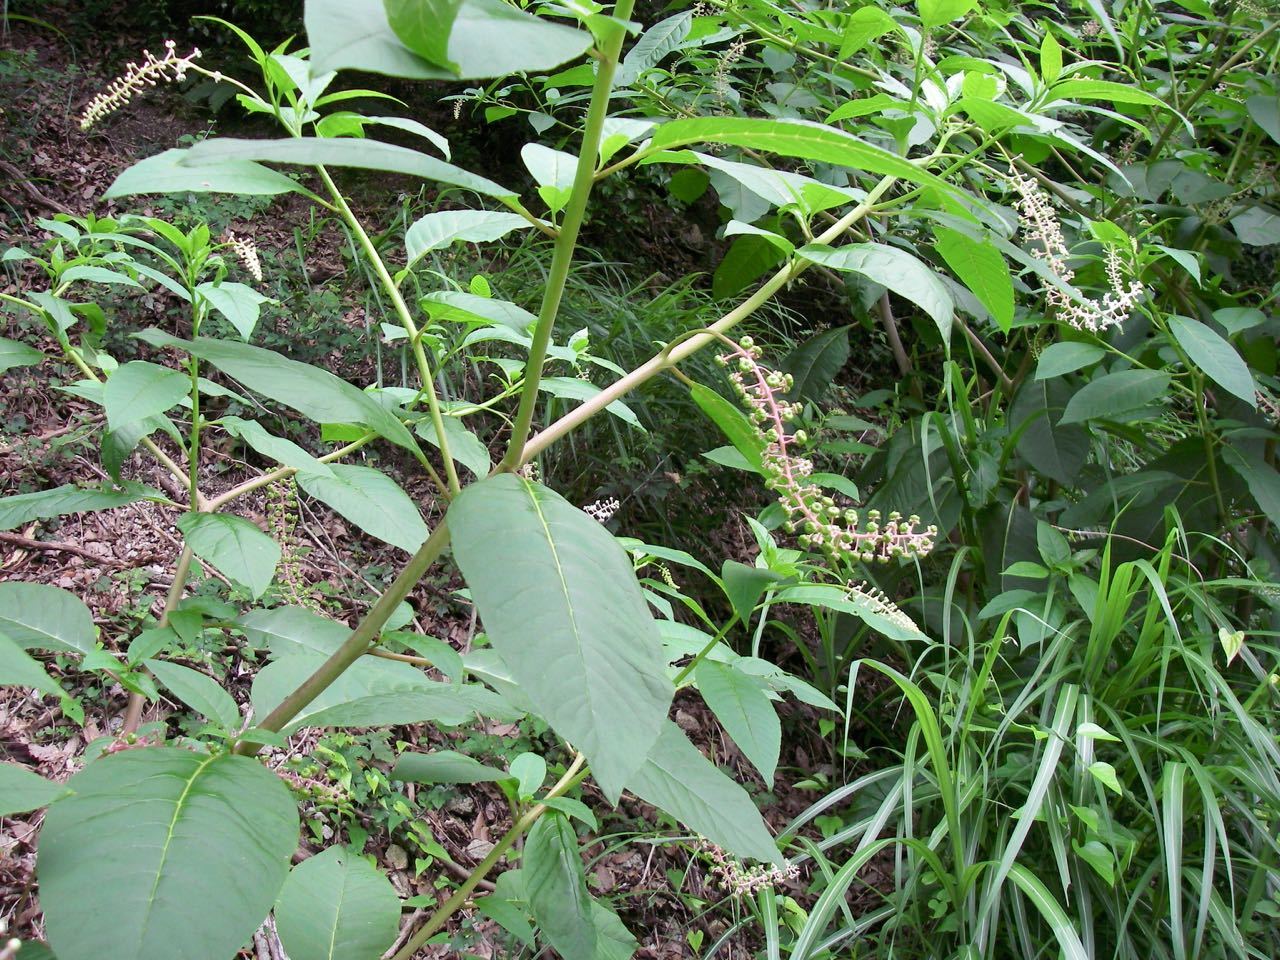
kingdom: Plantae
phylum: Tracheophyta
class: Magnoliopsida
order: Caryophyllales
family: Phytolaccaceae
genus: Phytolacca
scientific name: Phytolacca americana
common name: American pokeweed
